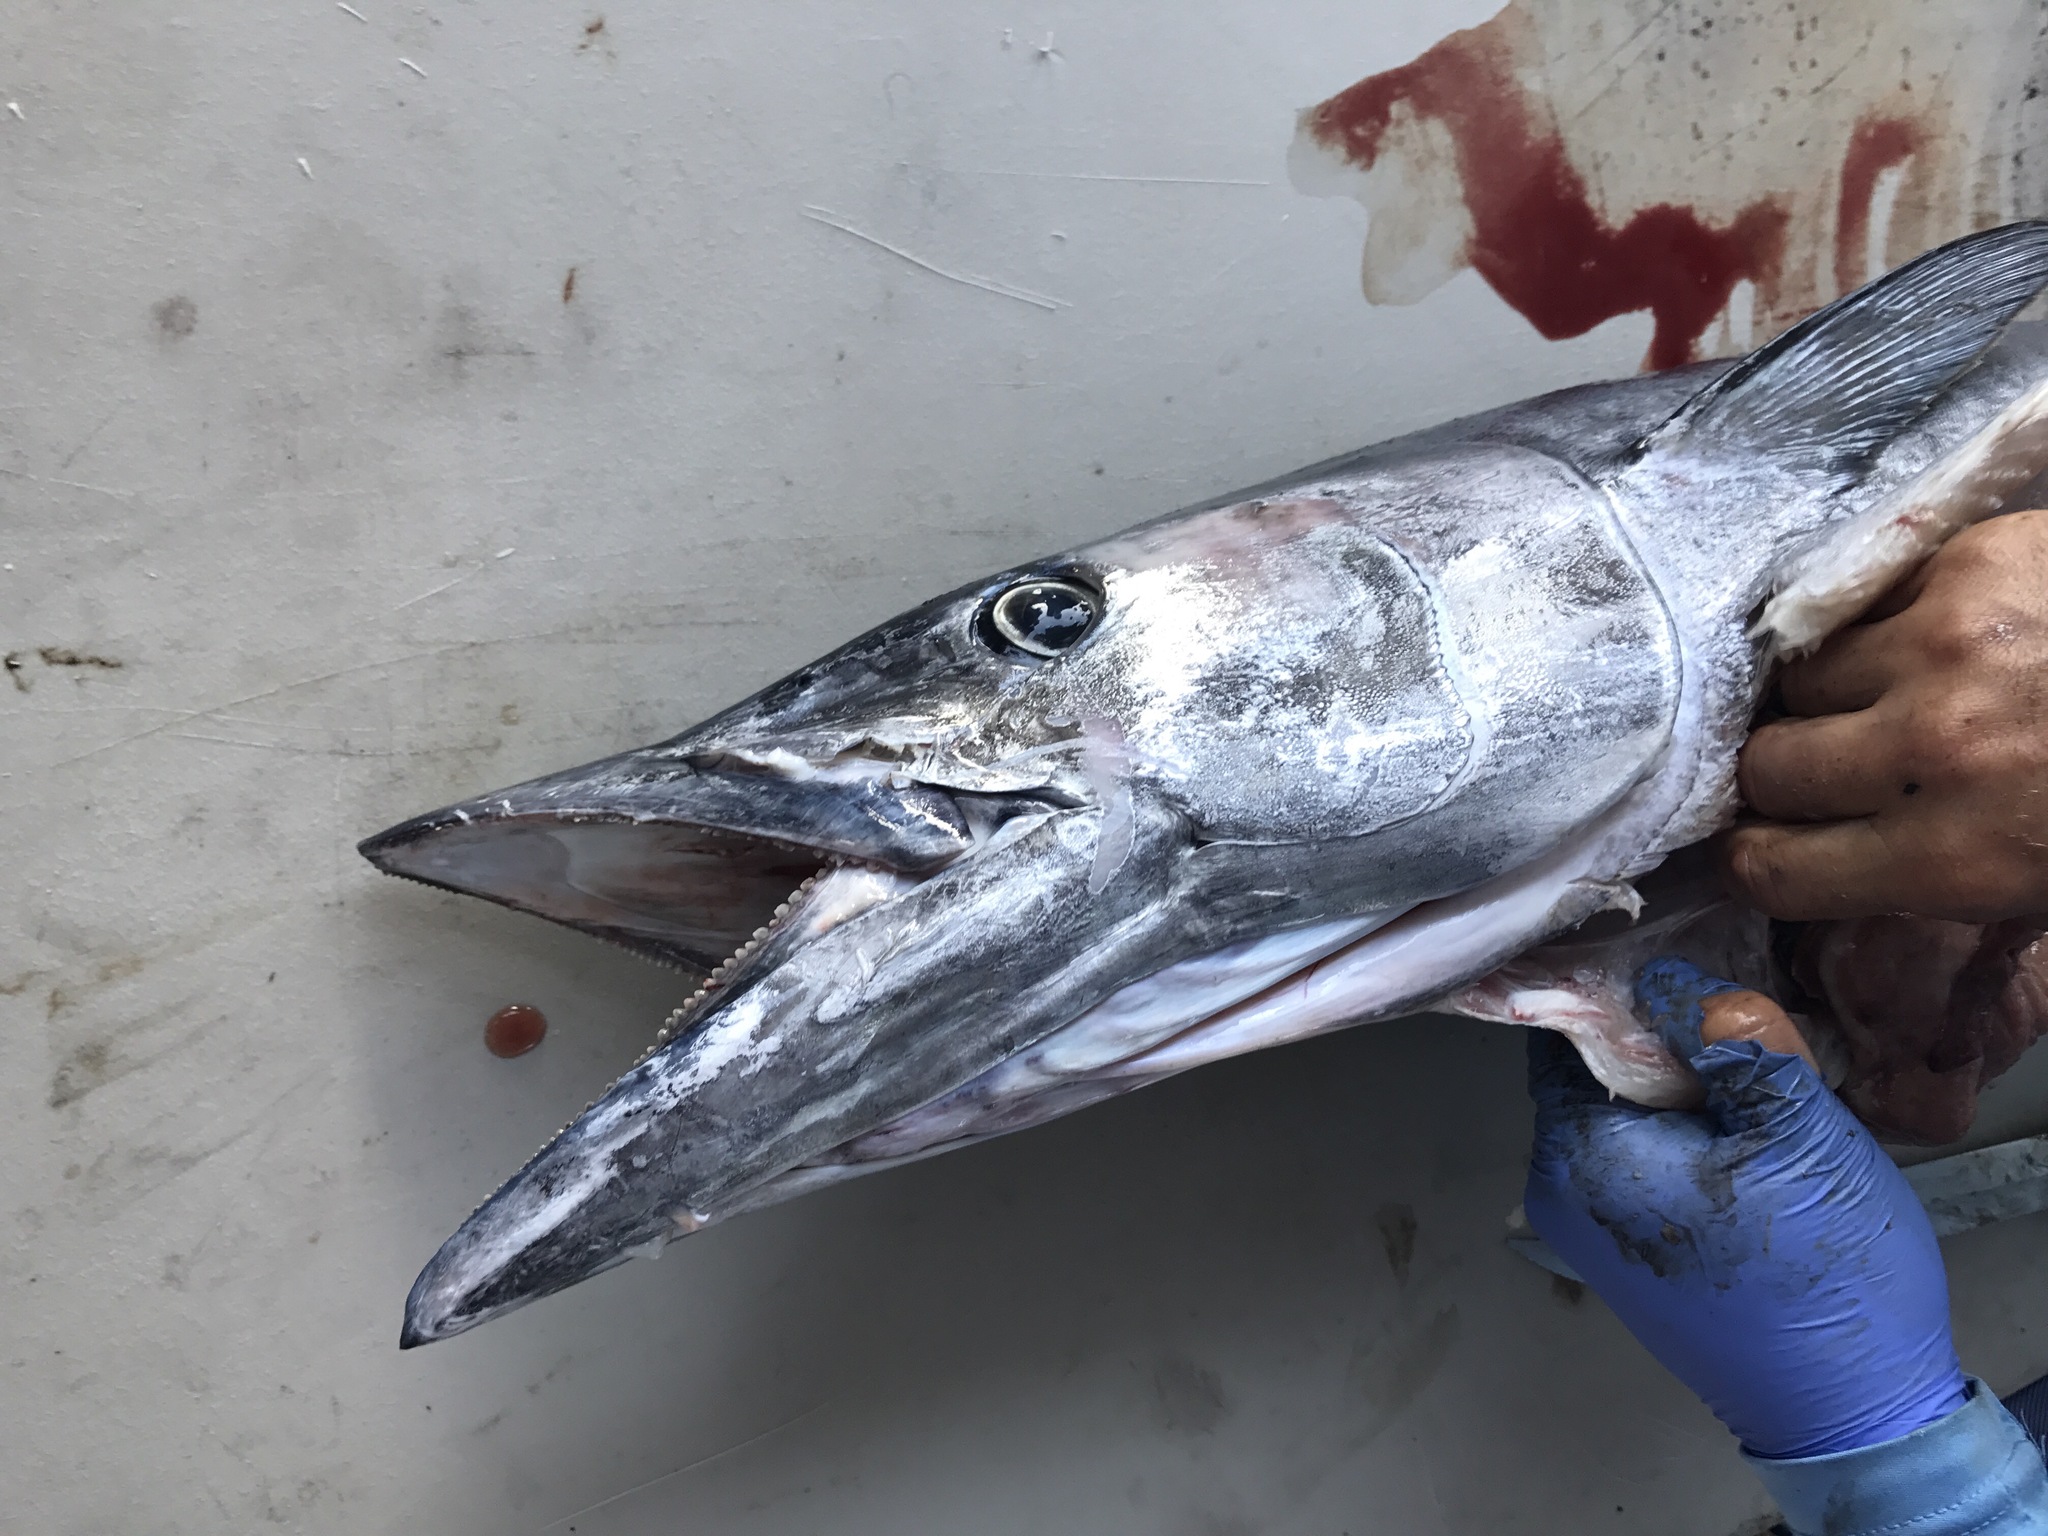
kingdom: Animalia
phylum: Chordata
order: Perciformes
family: Scombridae
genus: Acanthocybium
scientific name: Acanthocybium solandri
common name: Wahoo
